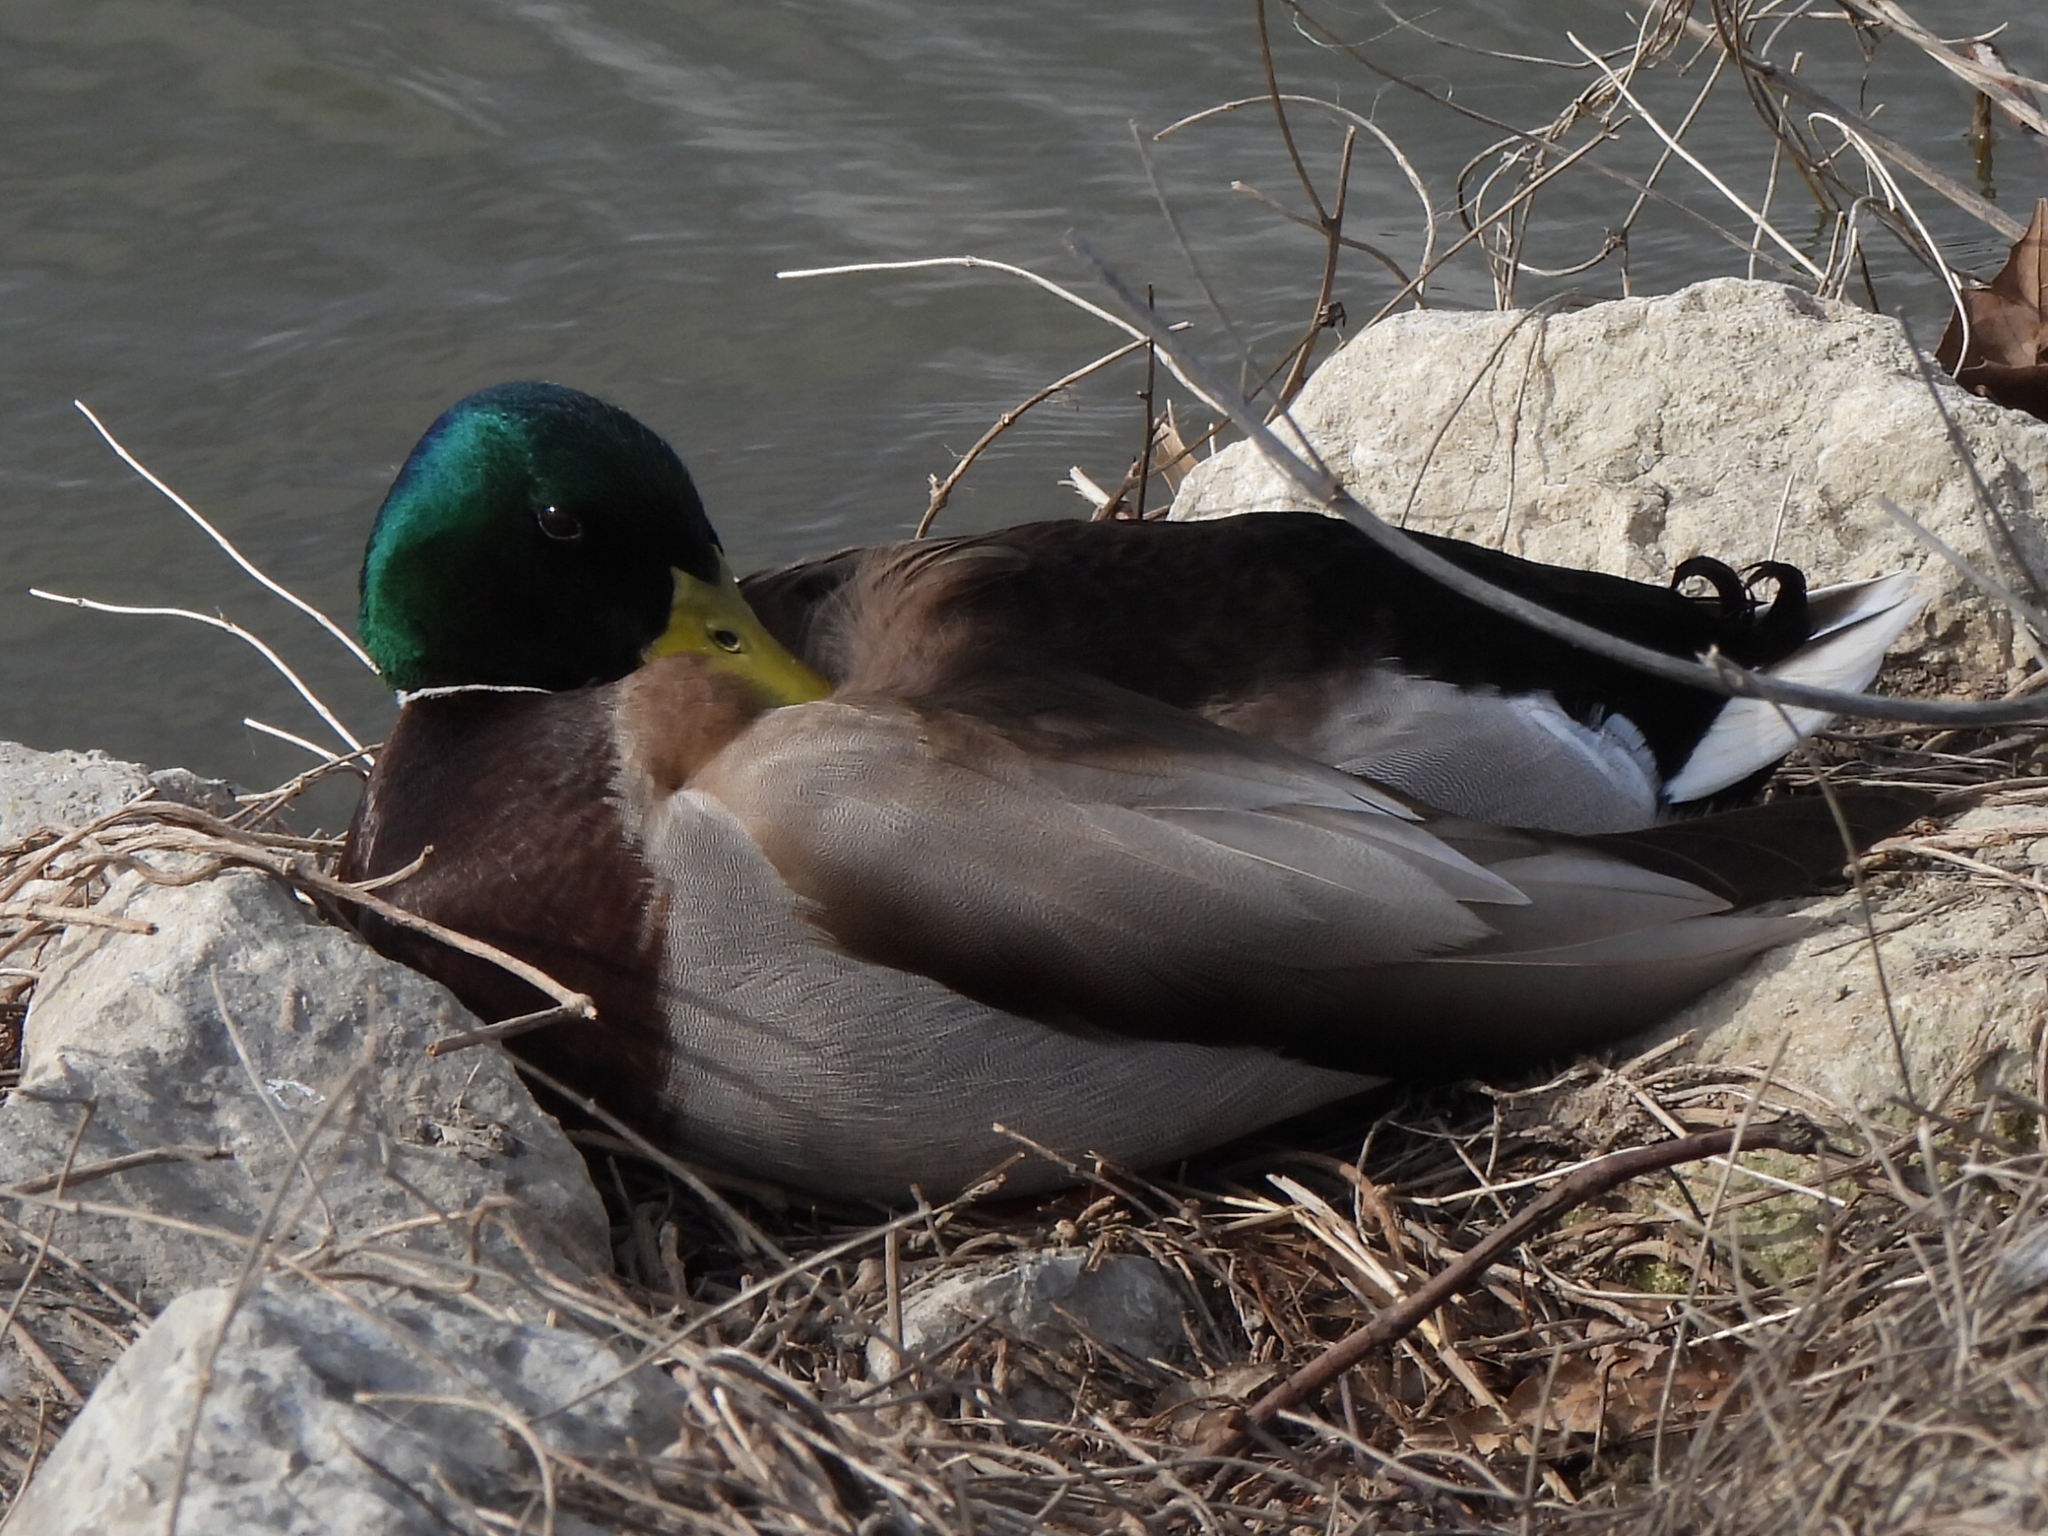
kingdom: Animalia
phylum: Chordata
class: Aves
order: Anseriformes
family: Anatidae
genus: Anas
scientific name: Anas platyrhynchos
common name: Mallard
